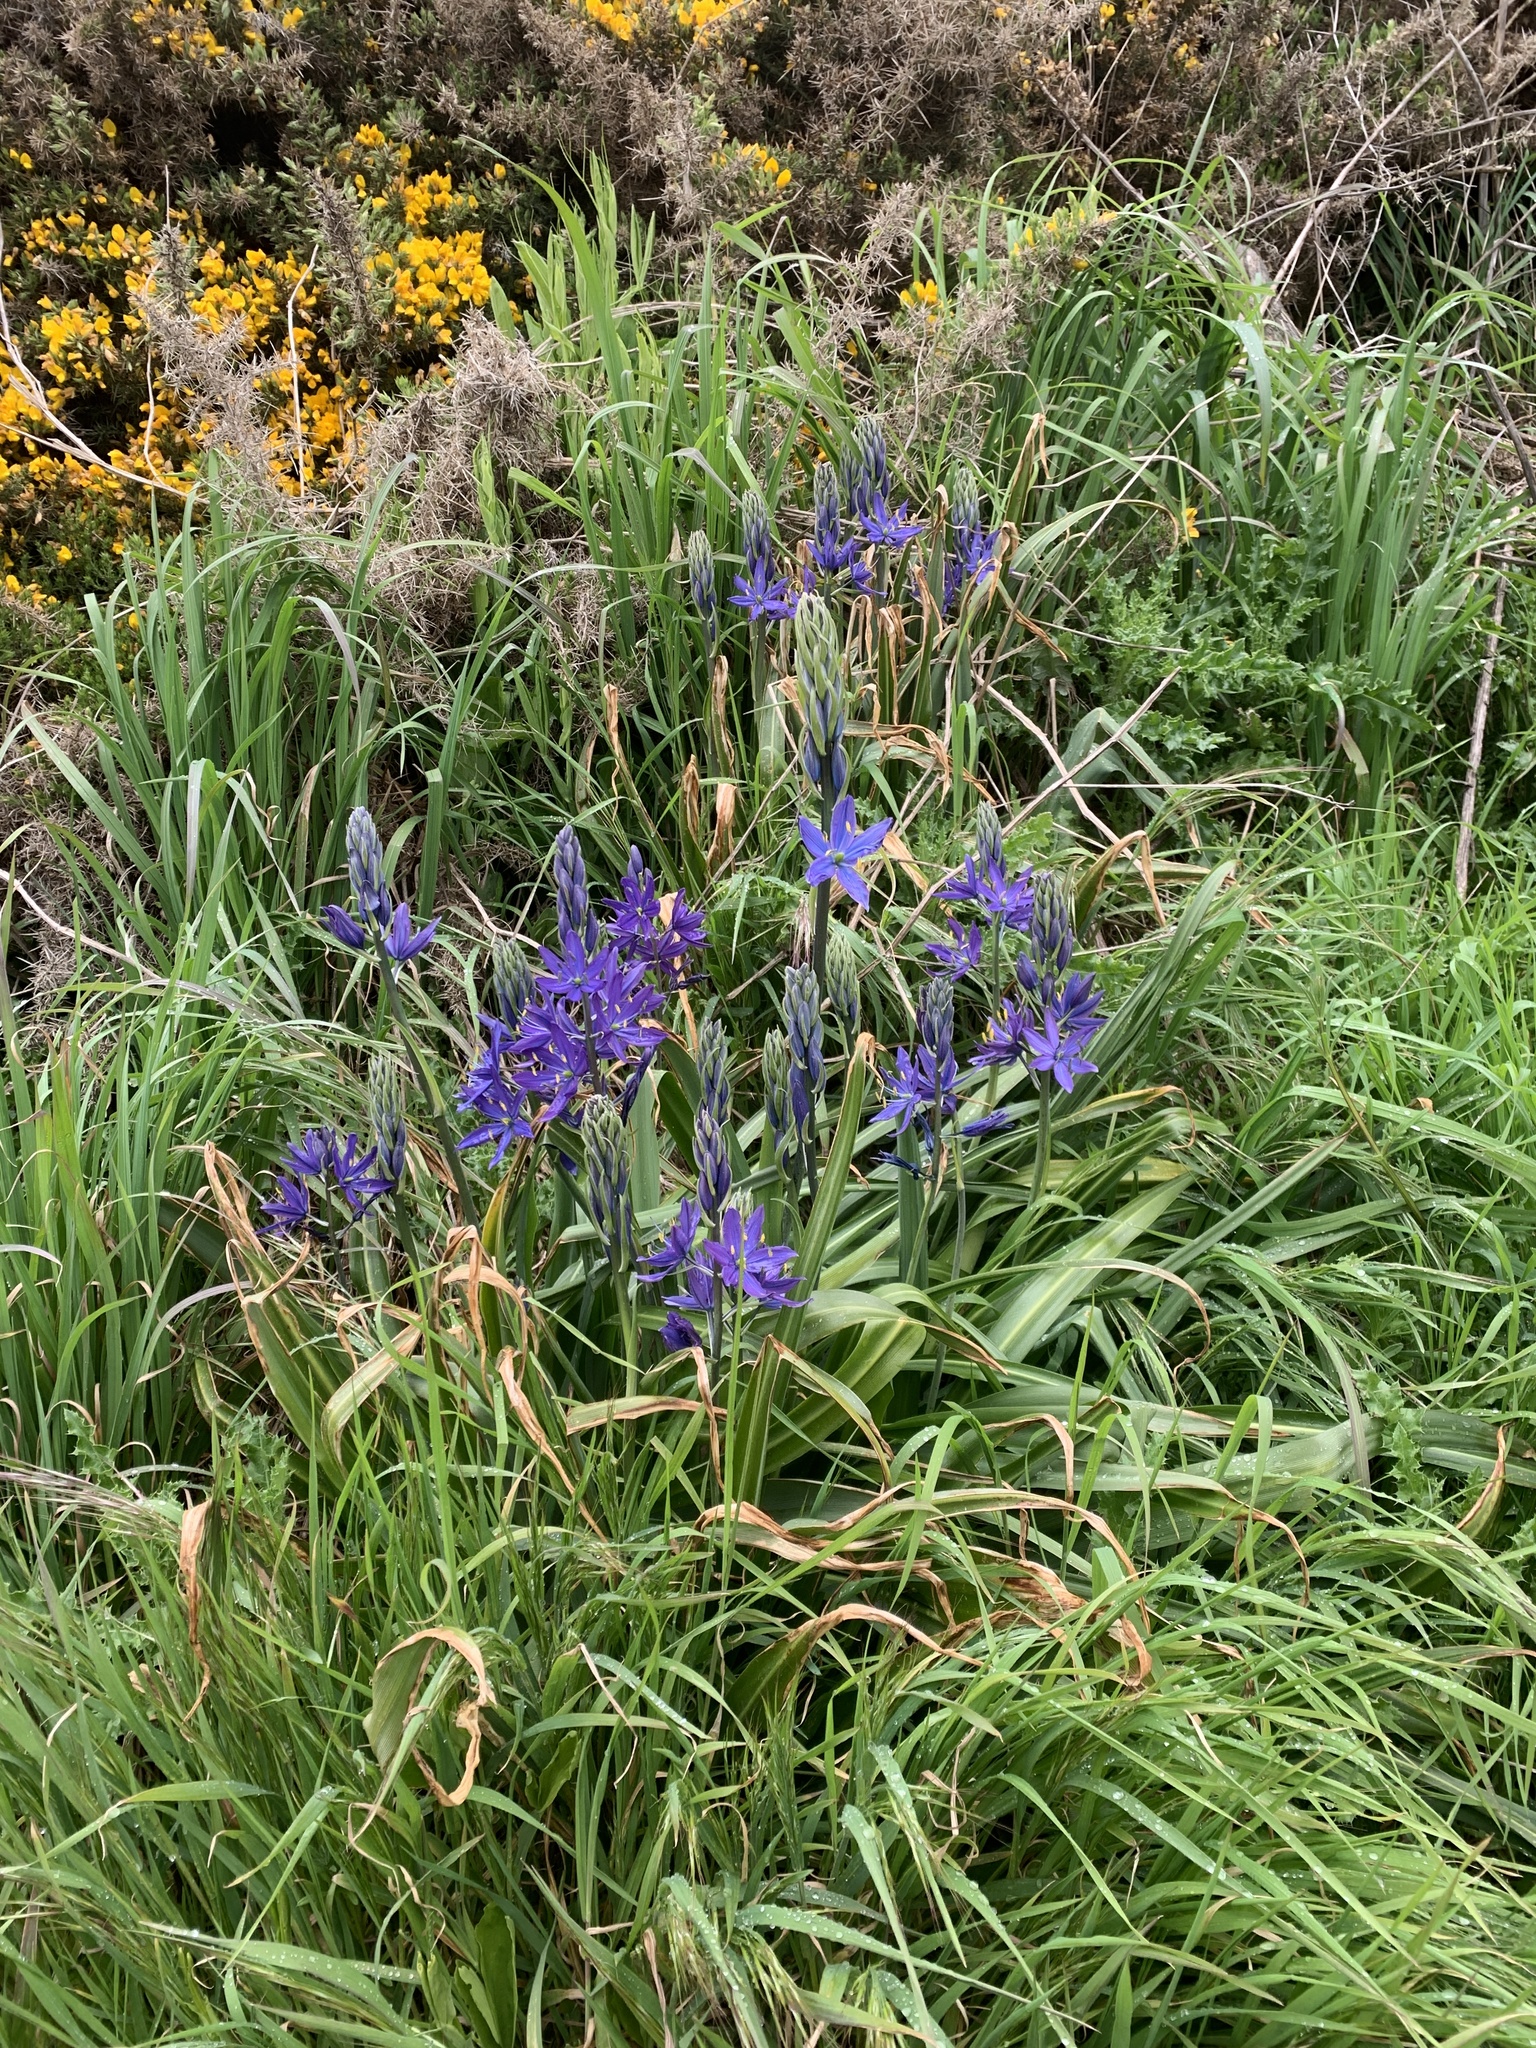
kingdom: Plantae
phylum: Tracheophyta
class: Liliopsida
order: Asparagales
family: Asparagaceae
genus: Camassia
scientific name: Camassia leichtlinii
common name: Leichtlin's camas
